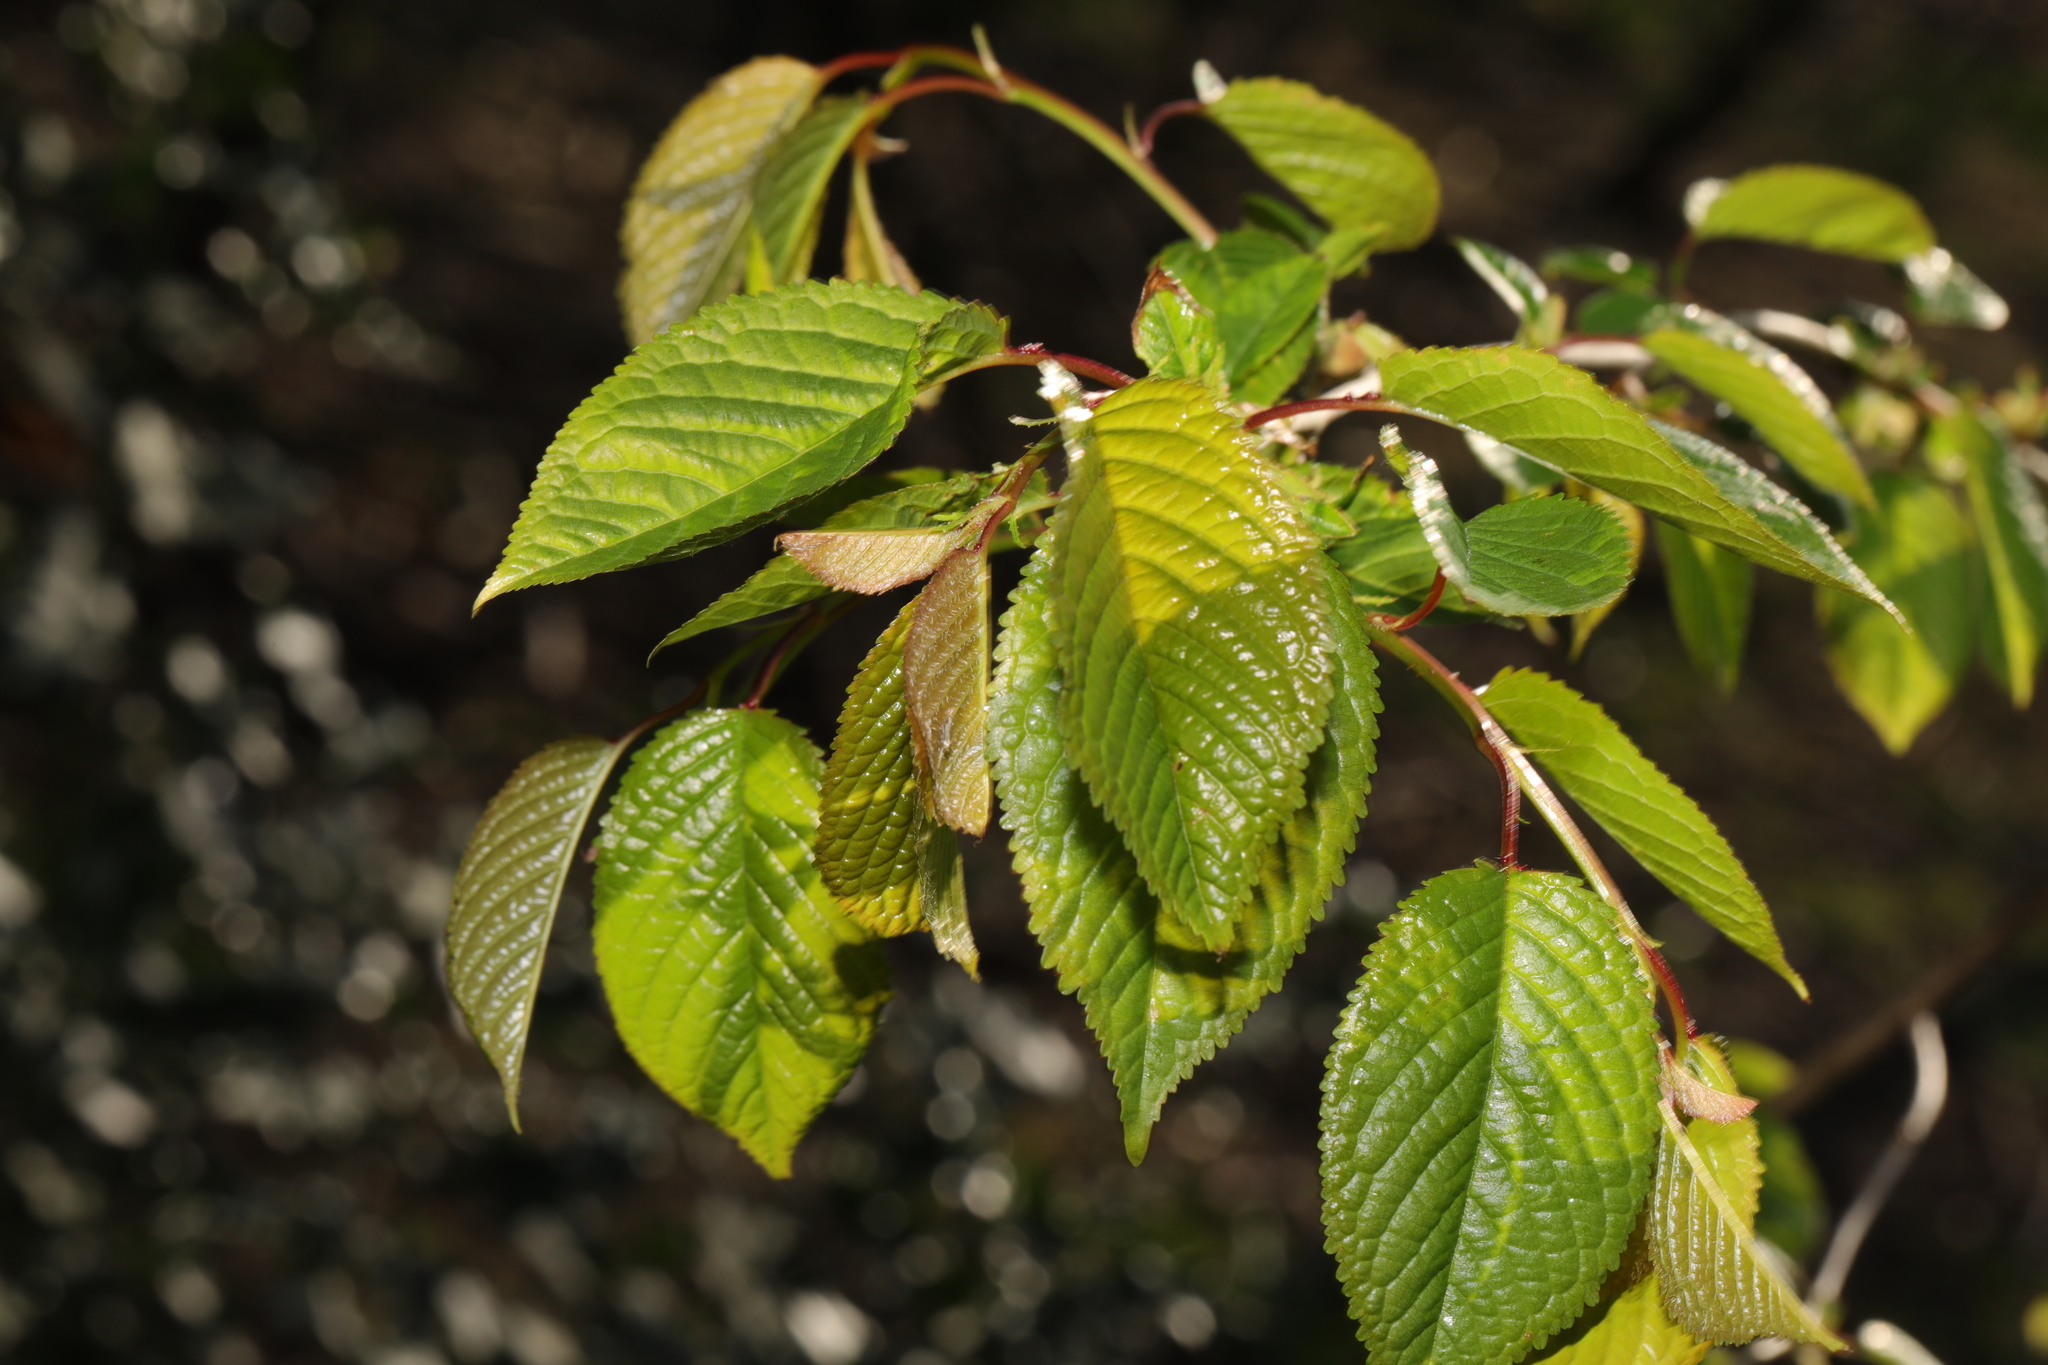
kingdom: Plantae
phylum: Tracheophyta
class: Magnoliopsida
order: Rosales
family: Rosaceae
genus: Prunus
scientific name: Prunus avium
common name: Sweet cherry
